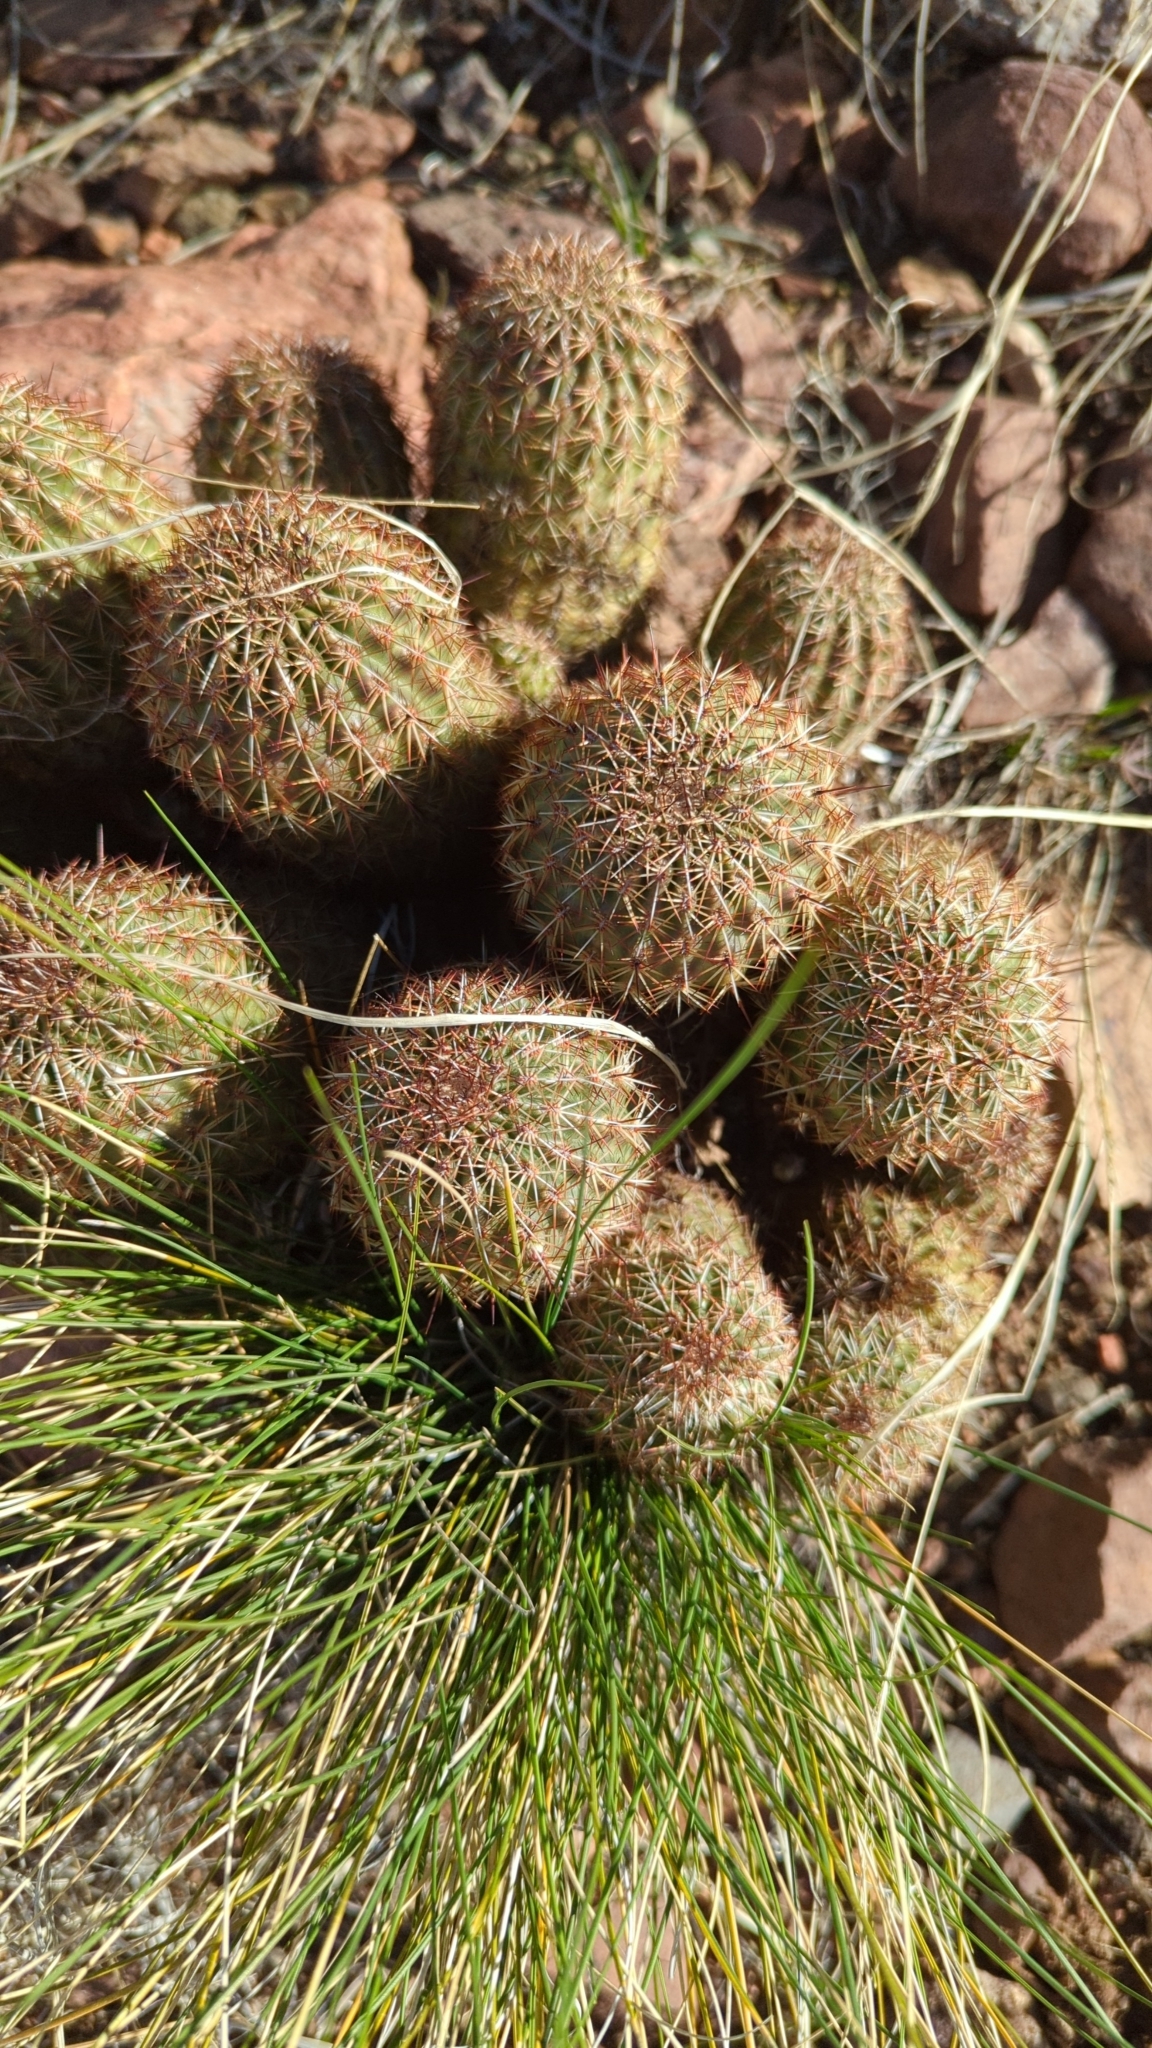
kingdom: Plantae
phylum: Tracheophyta
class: Magnoliopsida
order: Caryophyllales
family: Cactaceae
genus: Echinocereus
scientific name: Echinocereus bonkerae
